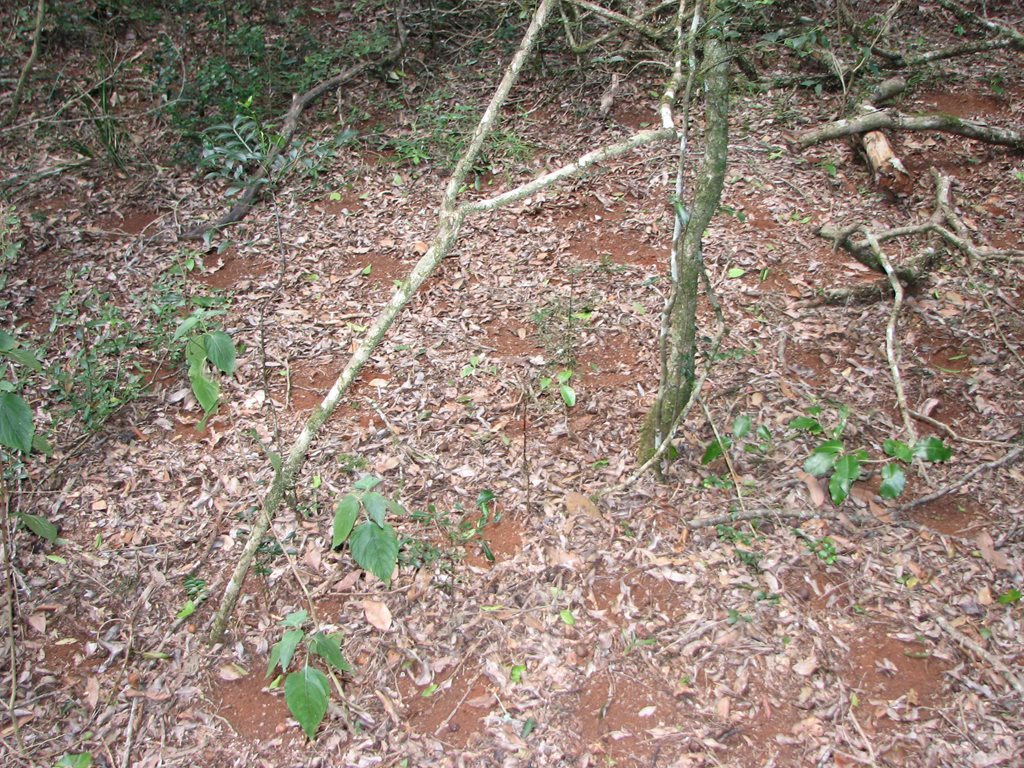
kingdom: Animalia
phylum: Chordata
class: Aves
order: Charadriiformes
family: Turnicidae
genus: Turnix
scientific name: Turnix melanogaster
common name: Black-breasted buttonquail
